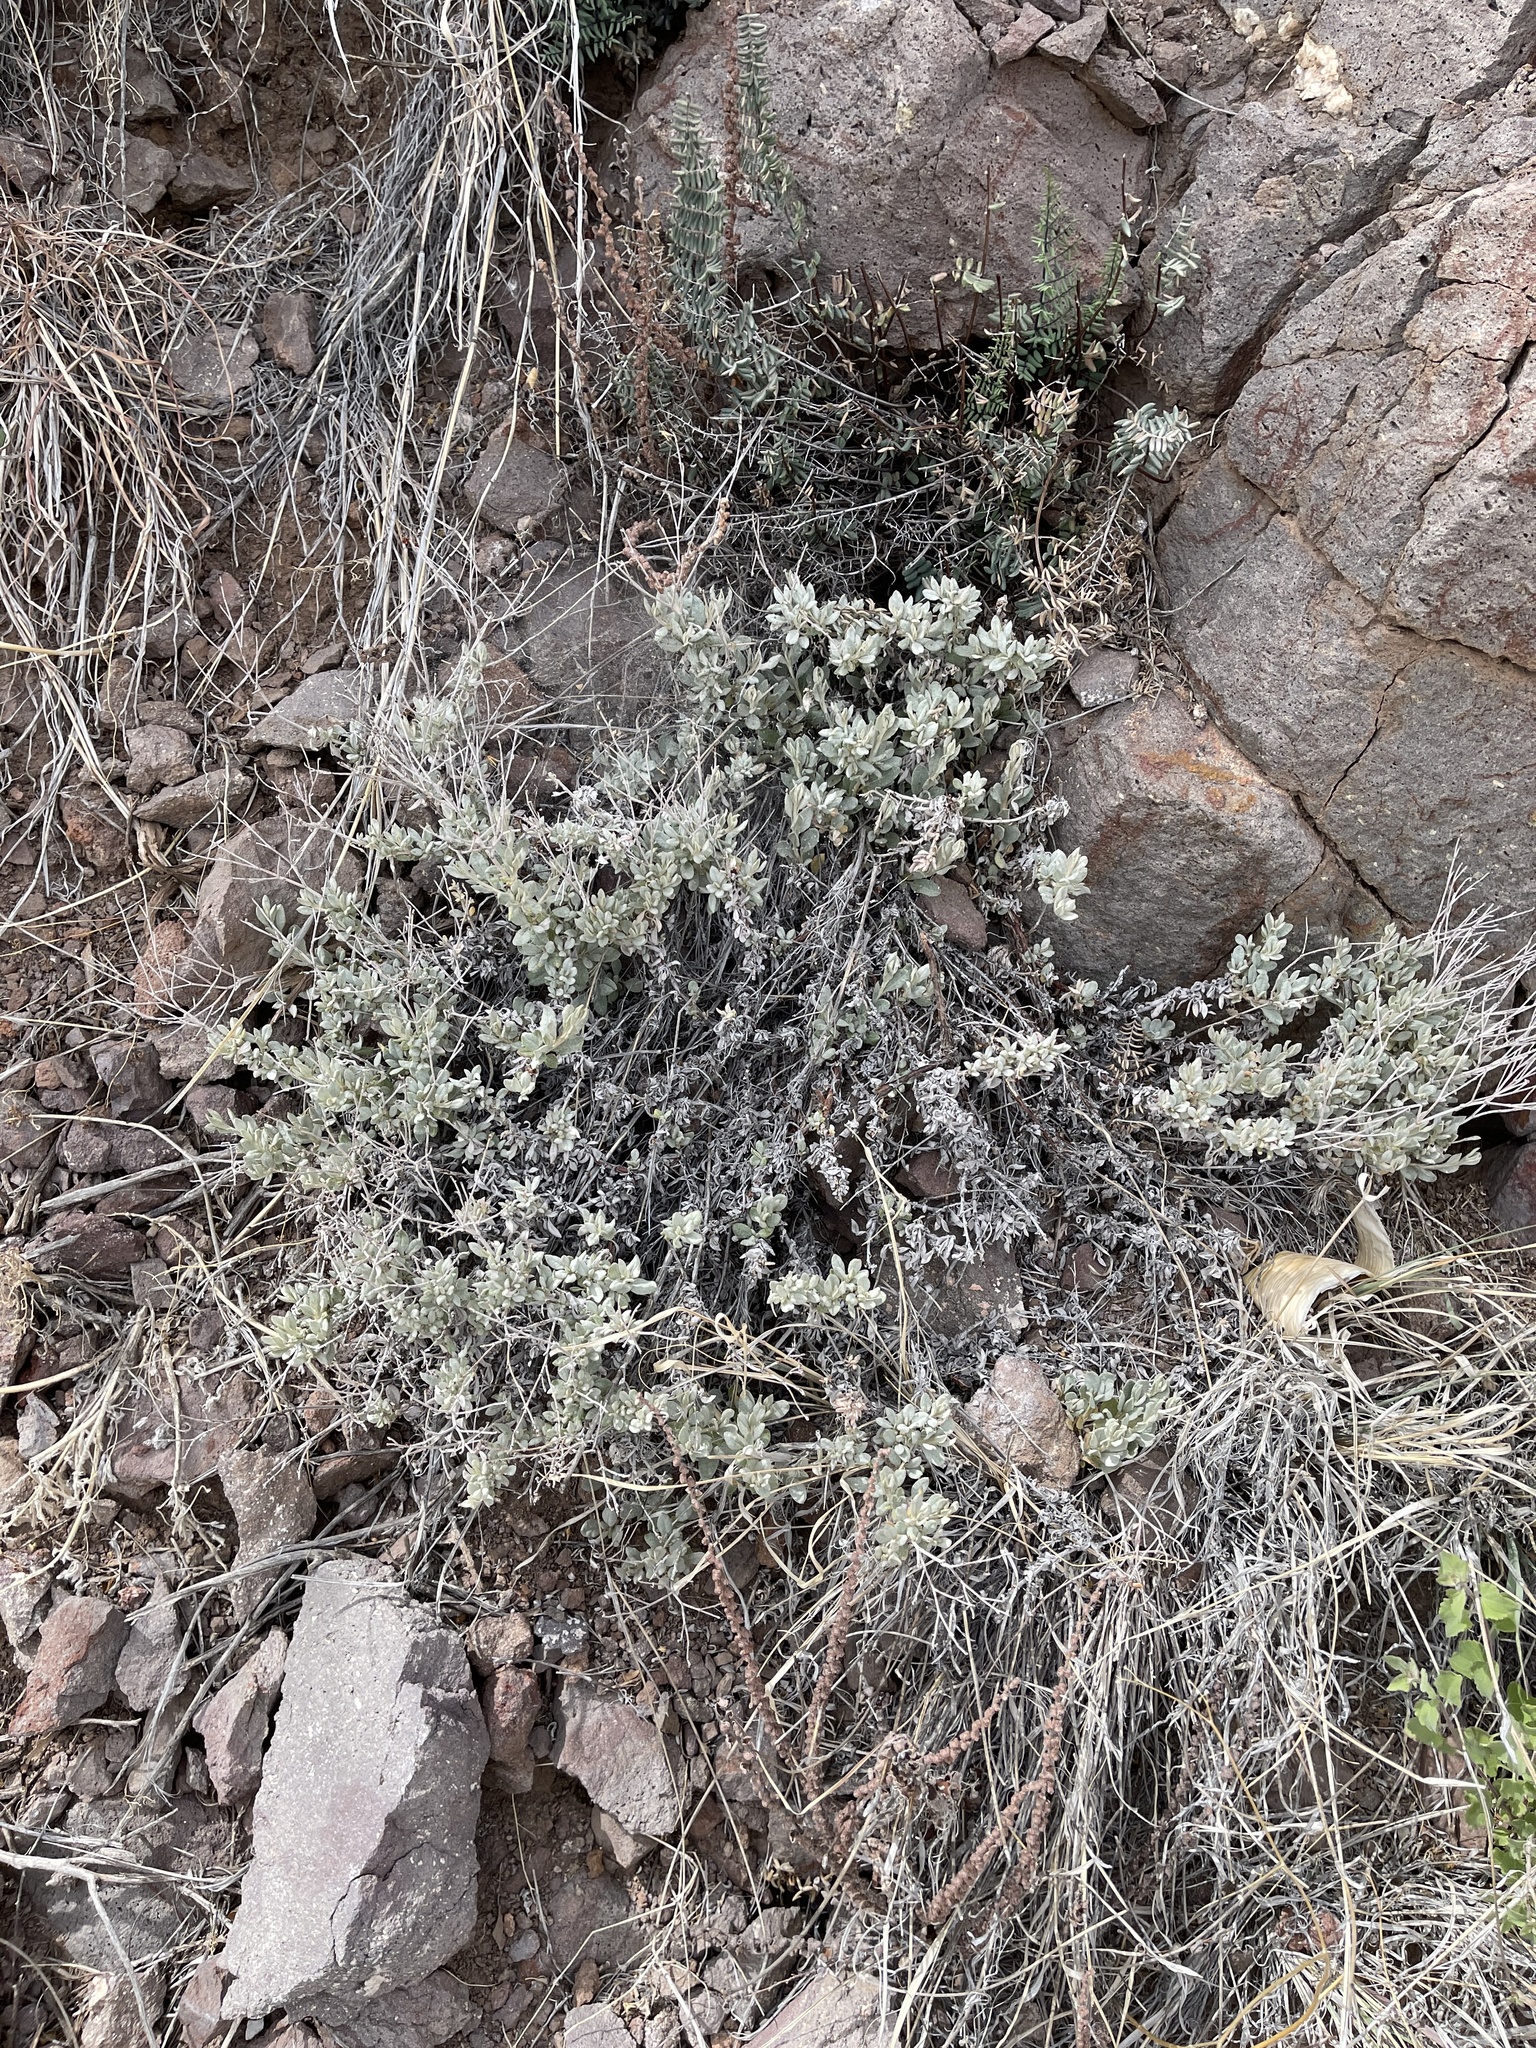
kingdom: Plantae
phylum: Tracheophyta
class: Magnoliopsida
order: Caryophyllales
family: Polygonaceae
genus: Eriogonum
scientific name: Eriogonum wrightii
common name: Bastard-sage
